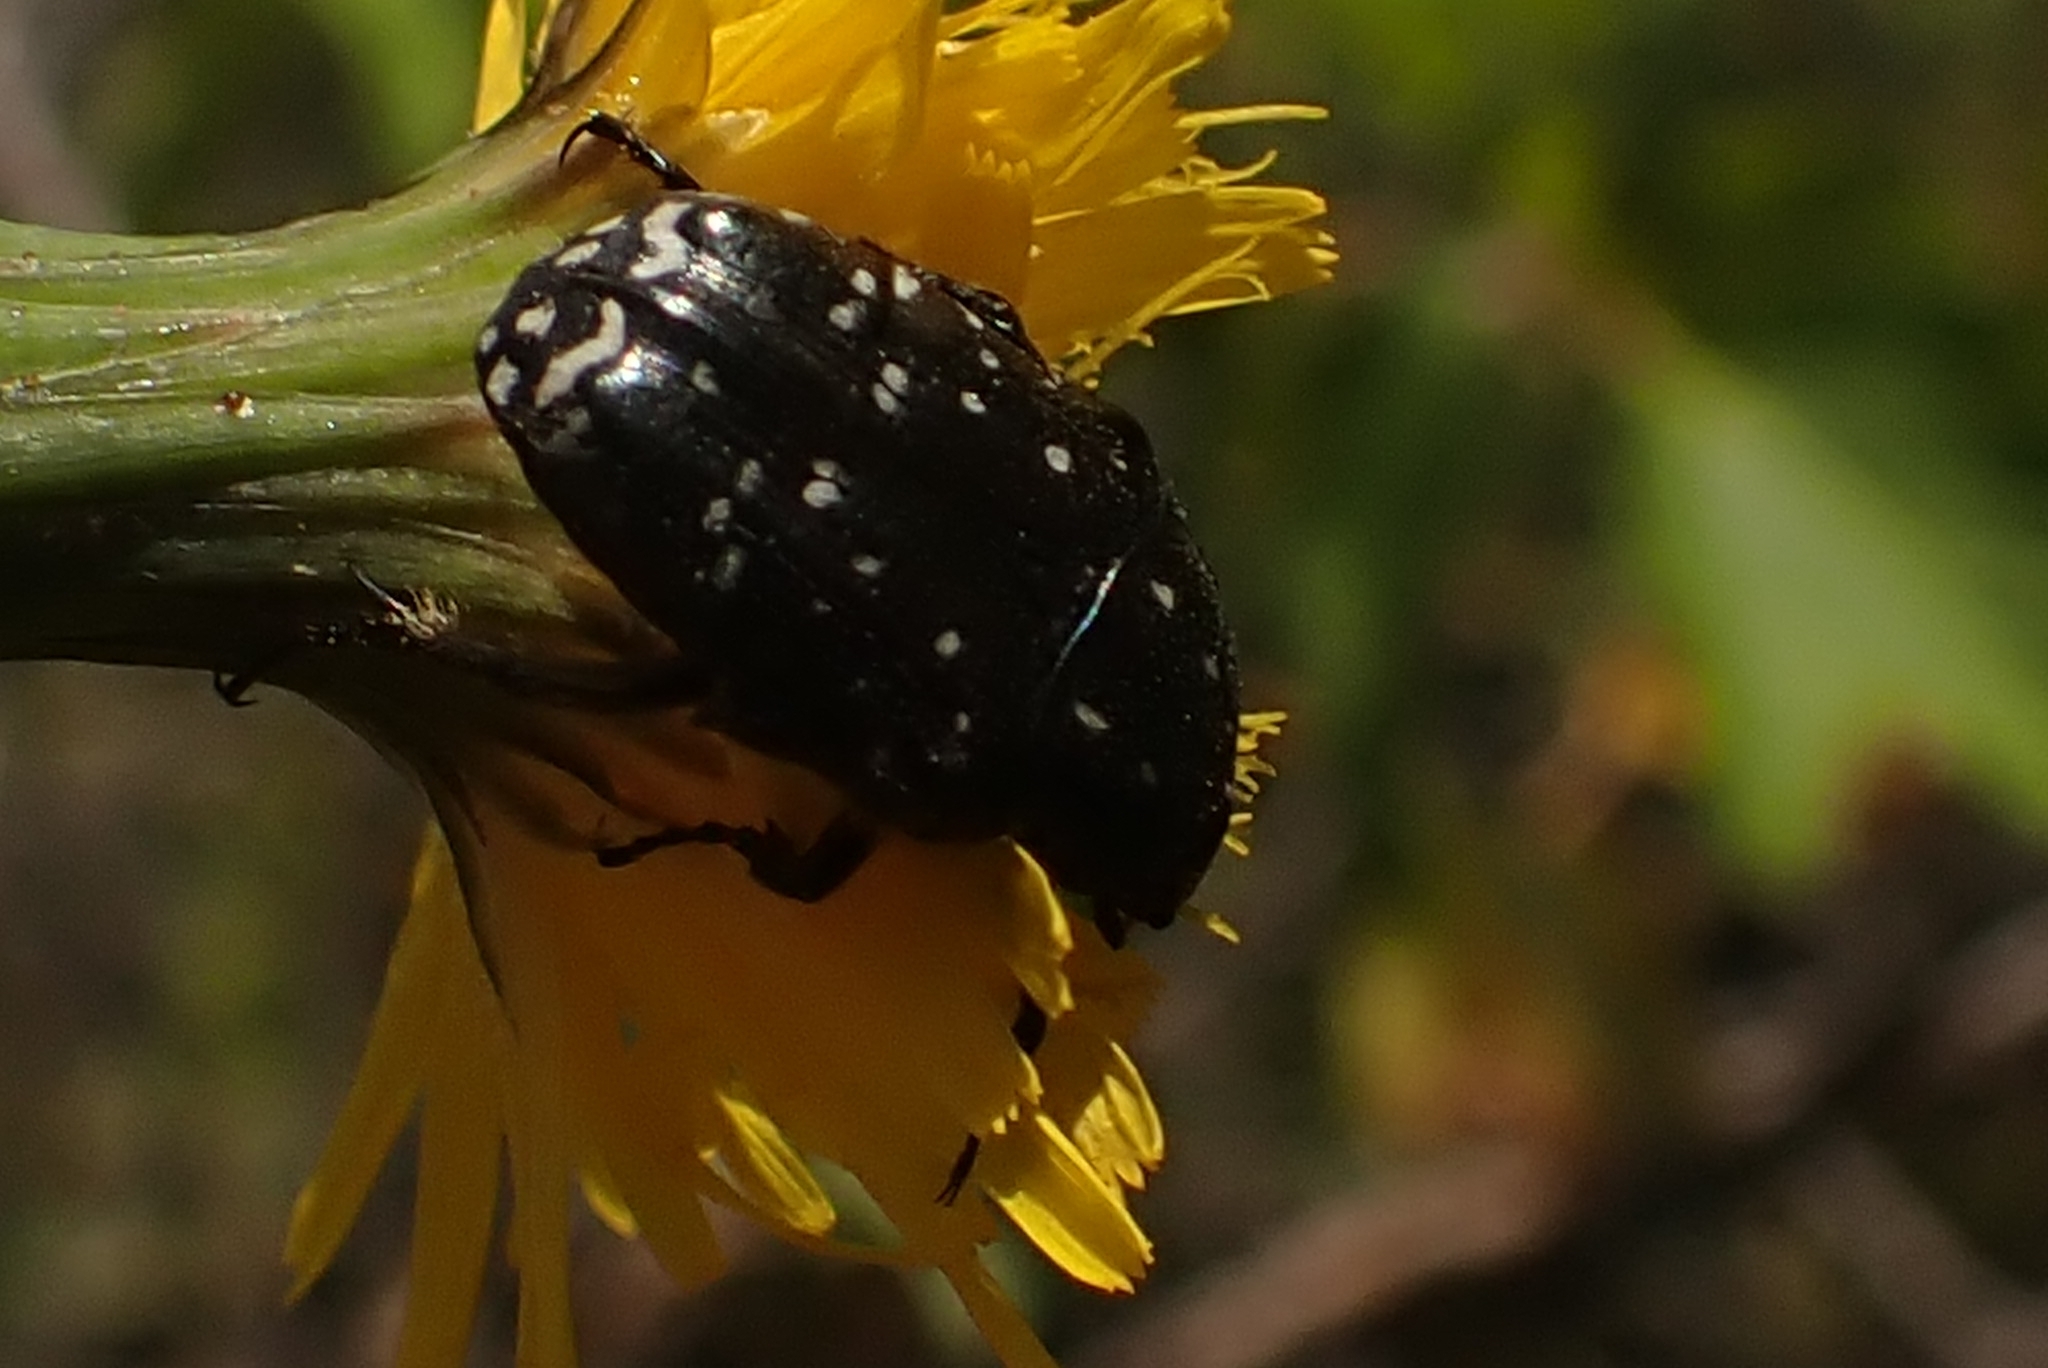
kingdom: Animalia
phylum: Arthropoda
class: Insecta
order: Coleoptera
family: Scarabaeidae
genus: Oxythyrea
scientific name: Oxythyrea funesta
